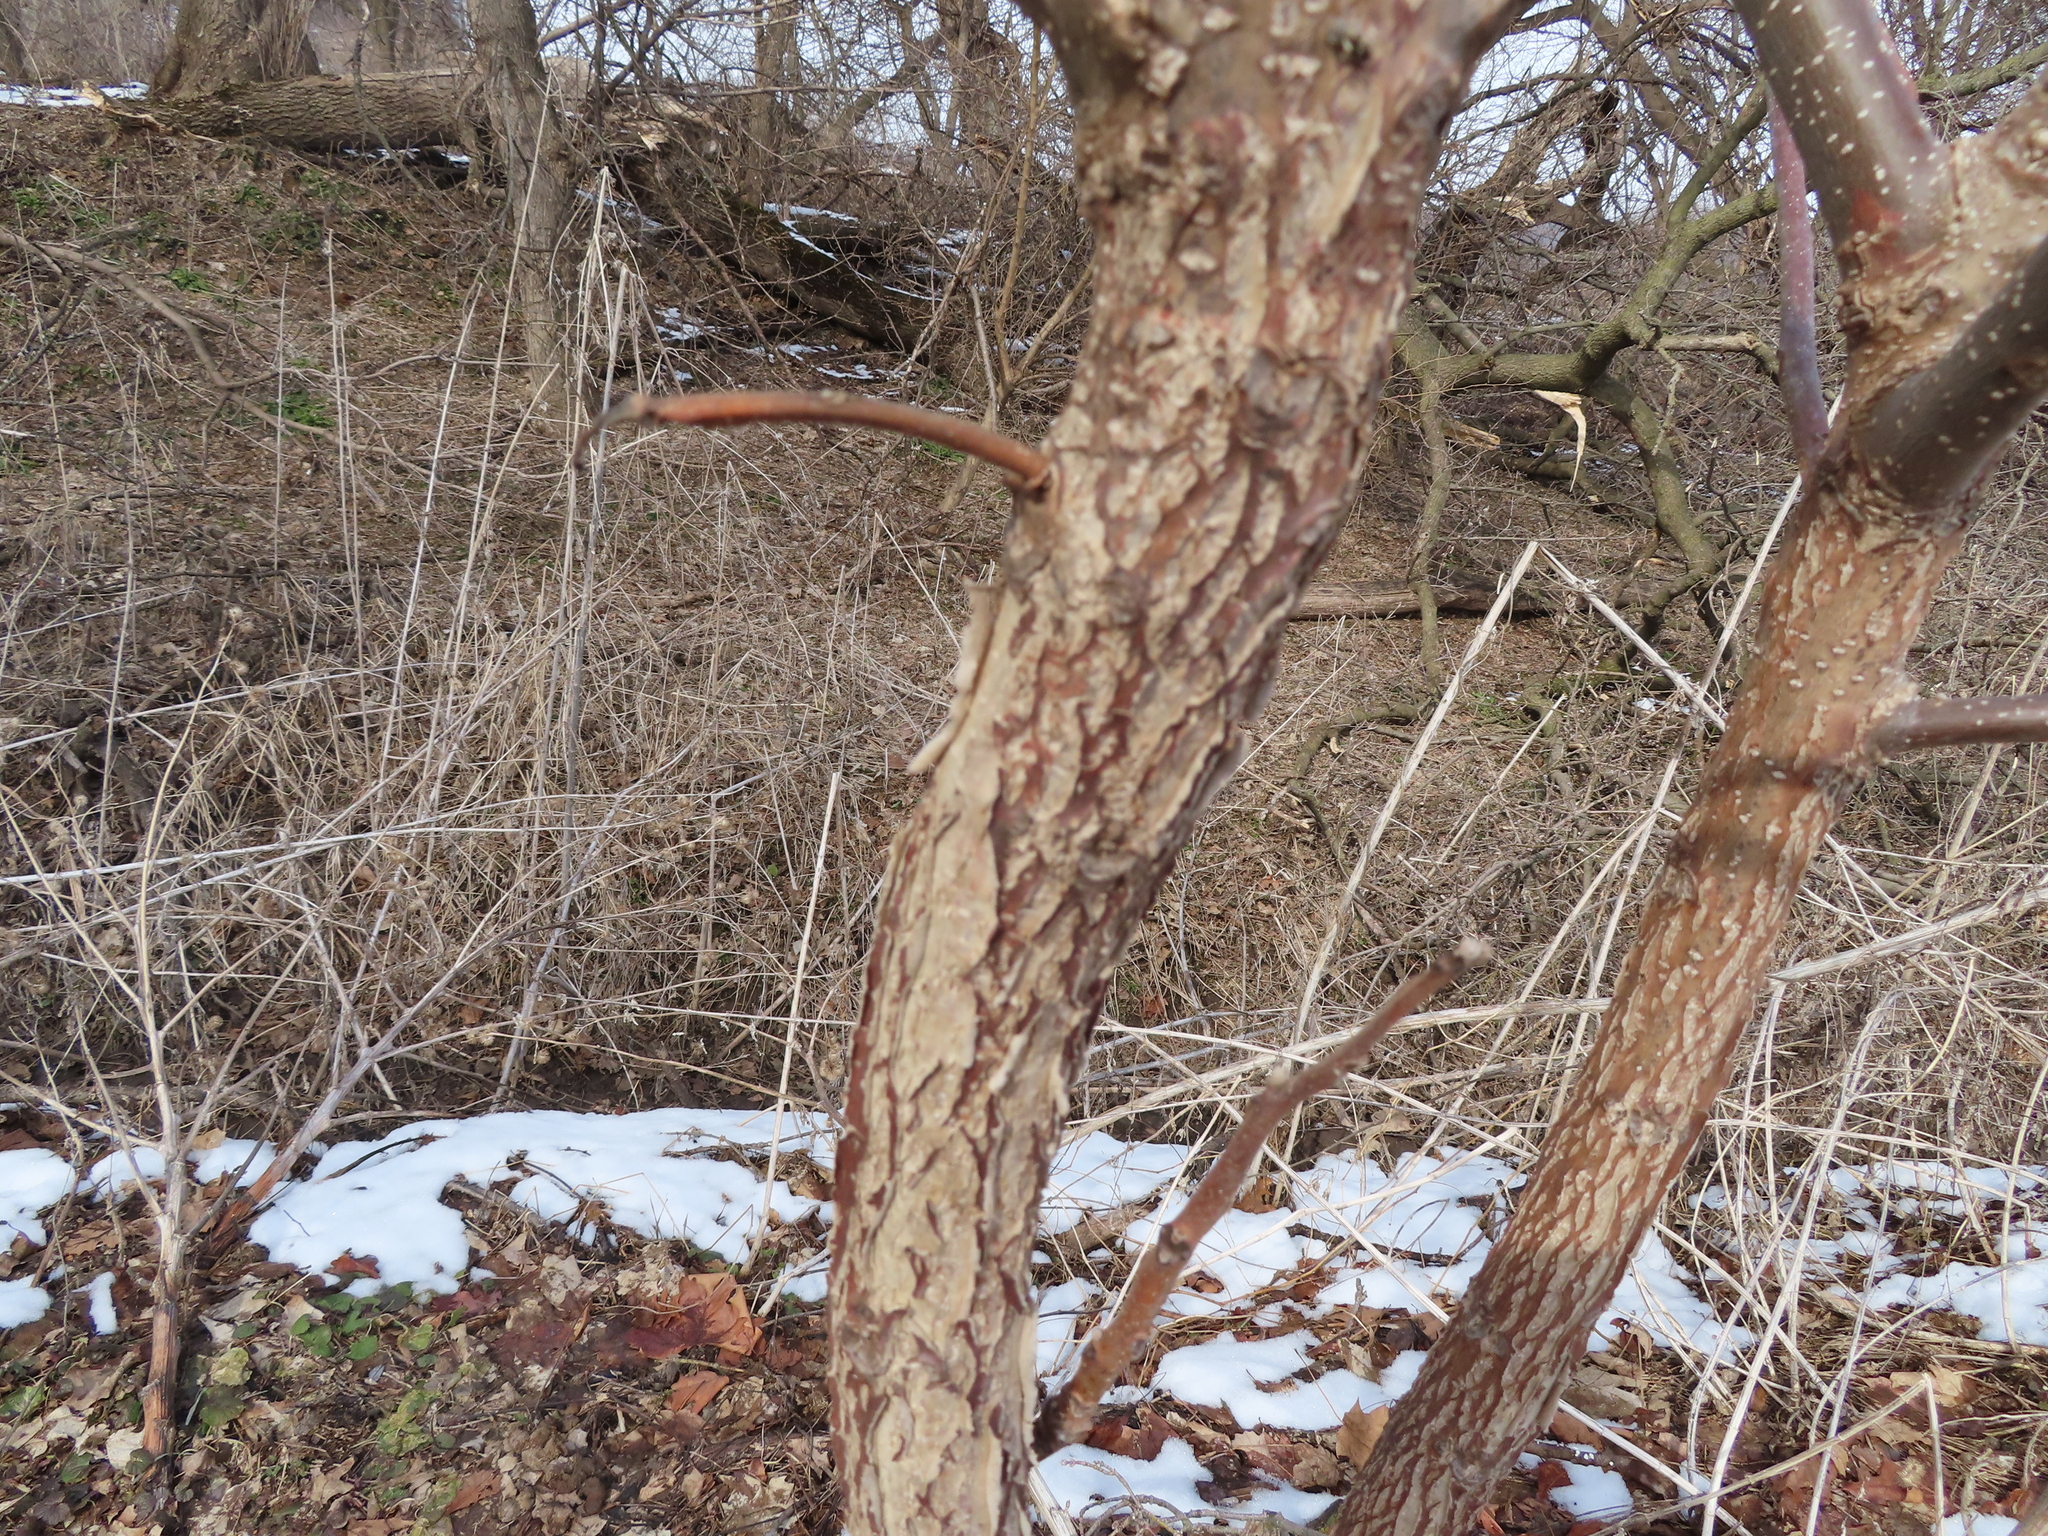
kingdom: Plantae
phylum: Tracheophyta
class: Magnoliopsida
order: Sapindales
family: Sapindaceae
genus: Acer
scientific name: Acer negundo
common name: Ashleaf maple
